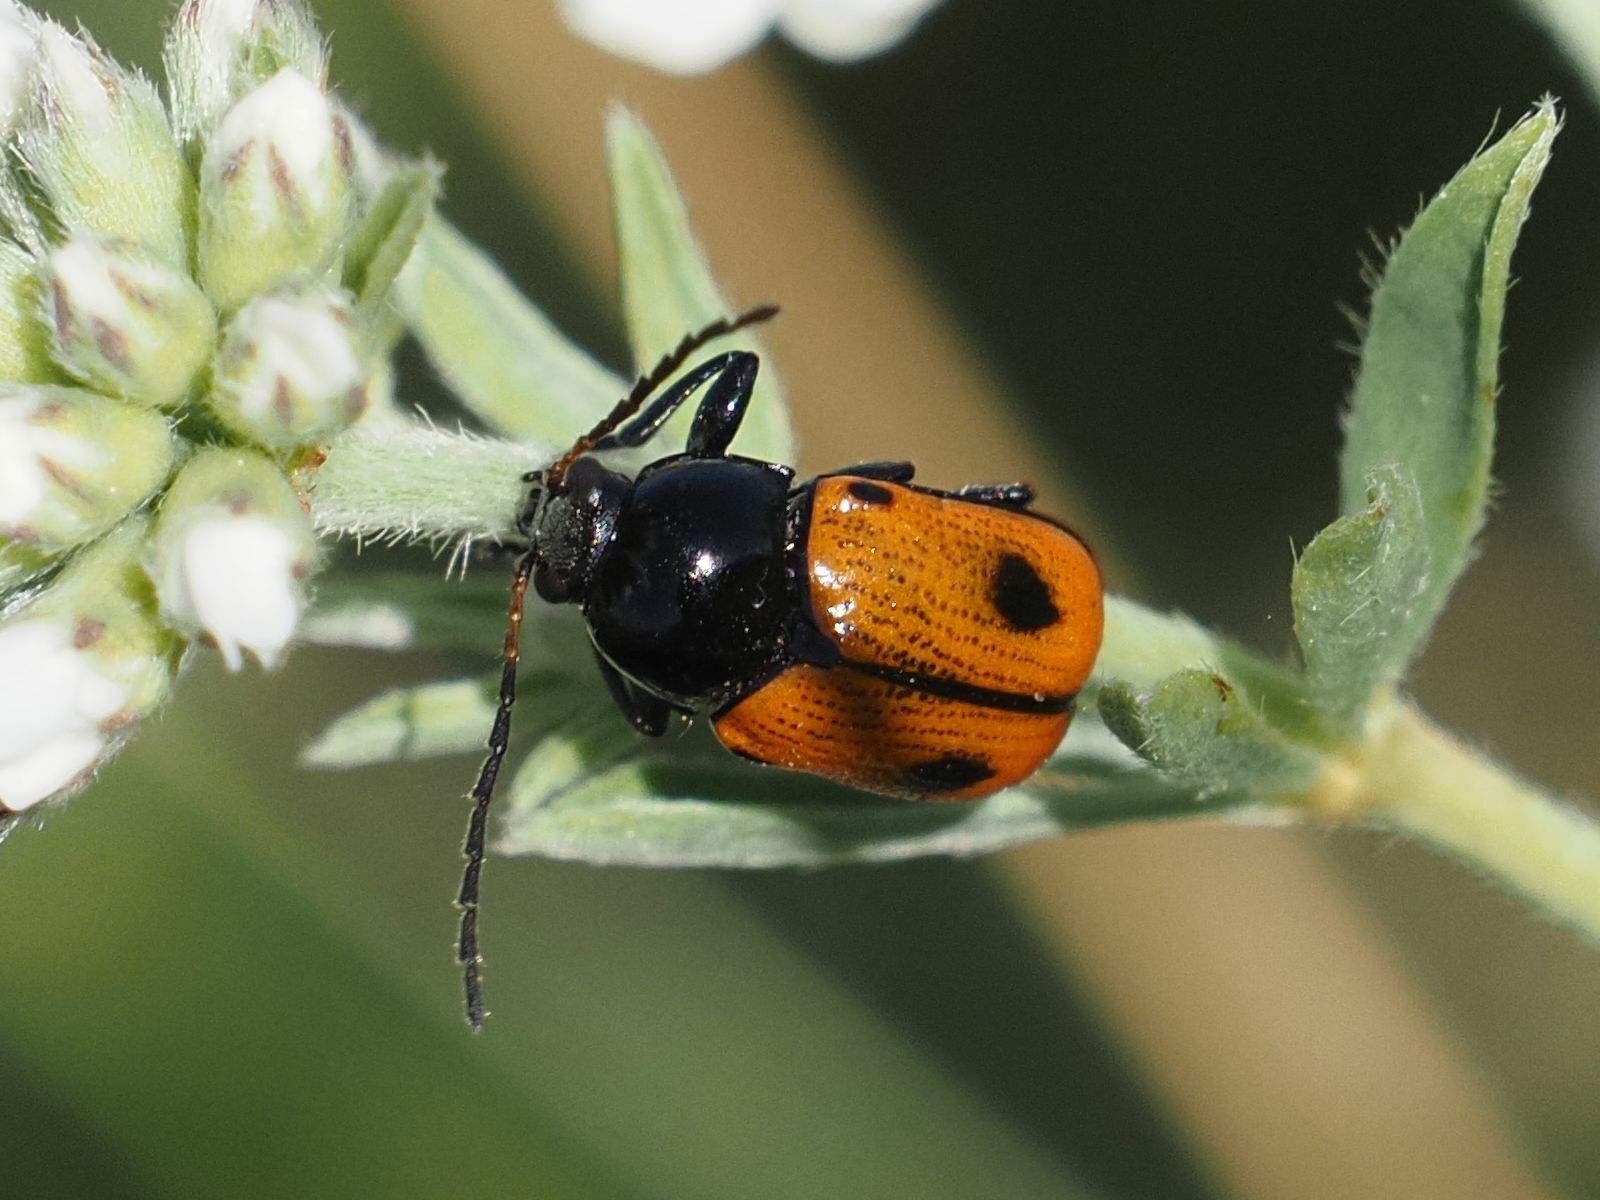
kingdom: Animalia
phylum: Arthropoda
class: Insecta
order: Coleoptera
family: Chrysomelidae
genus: Chiridopsis
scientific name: Chiridopsis bipunctata
